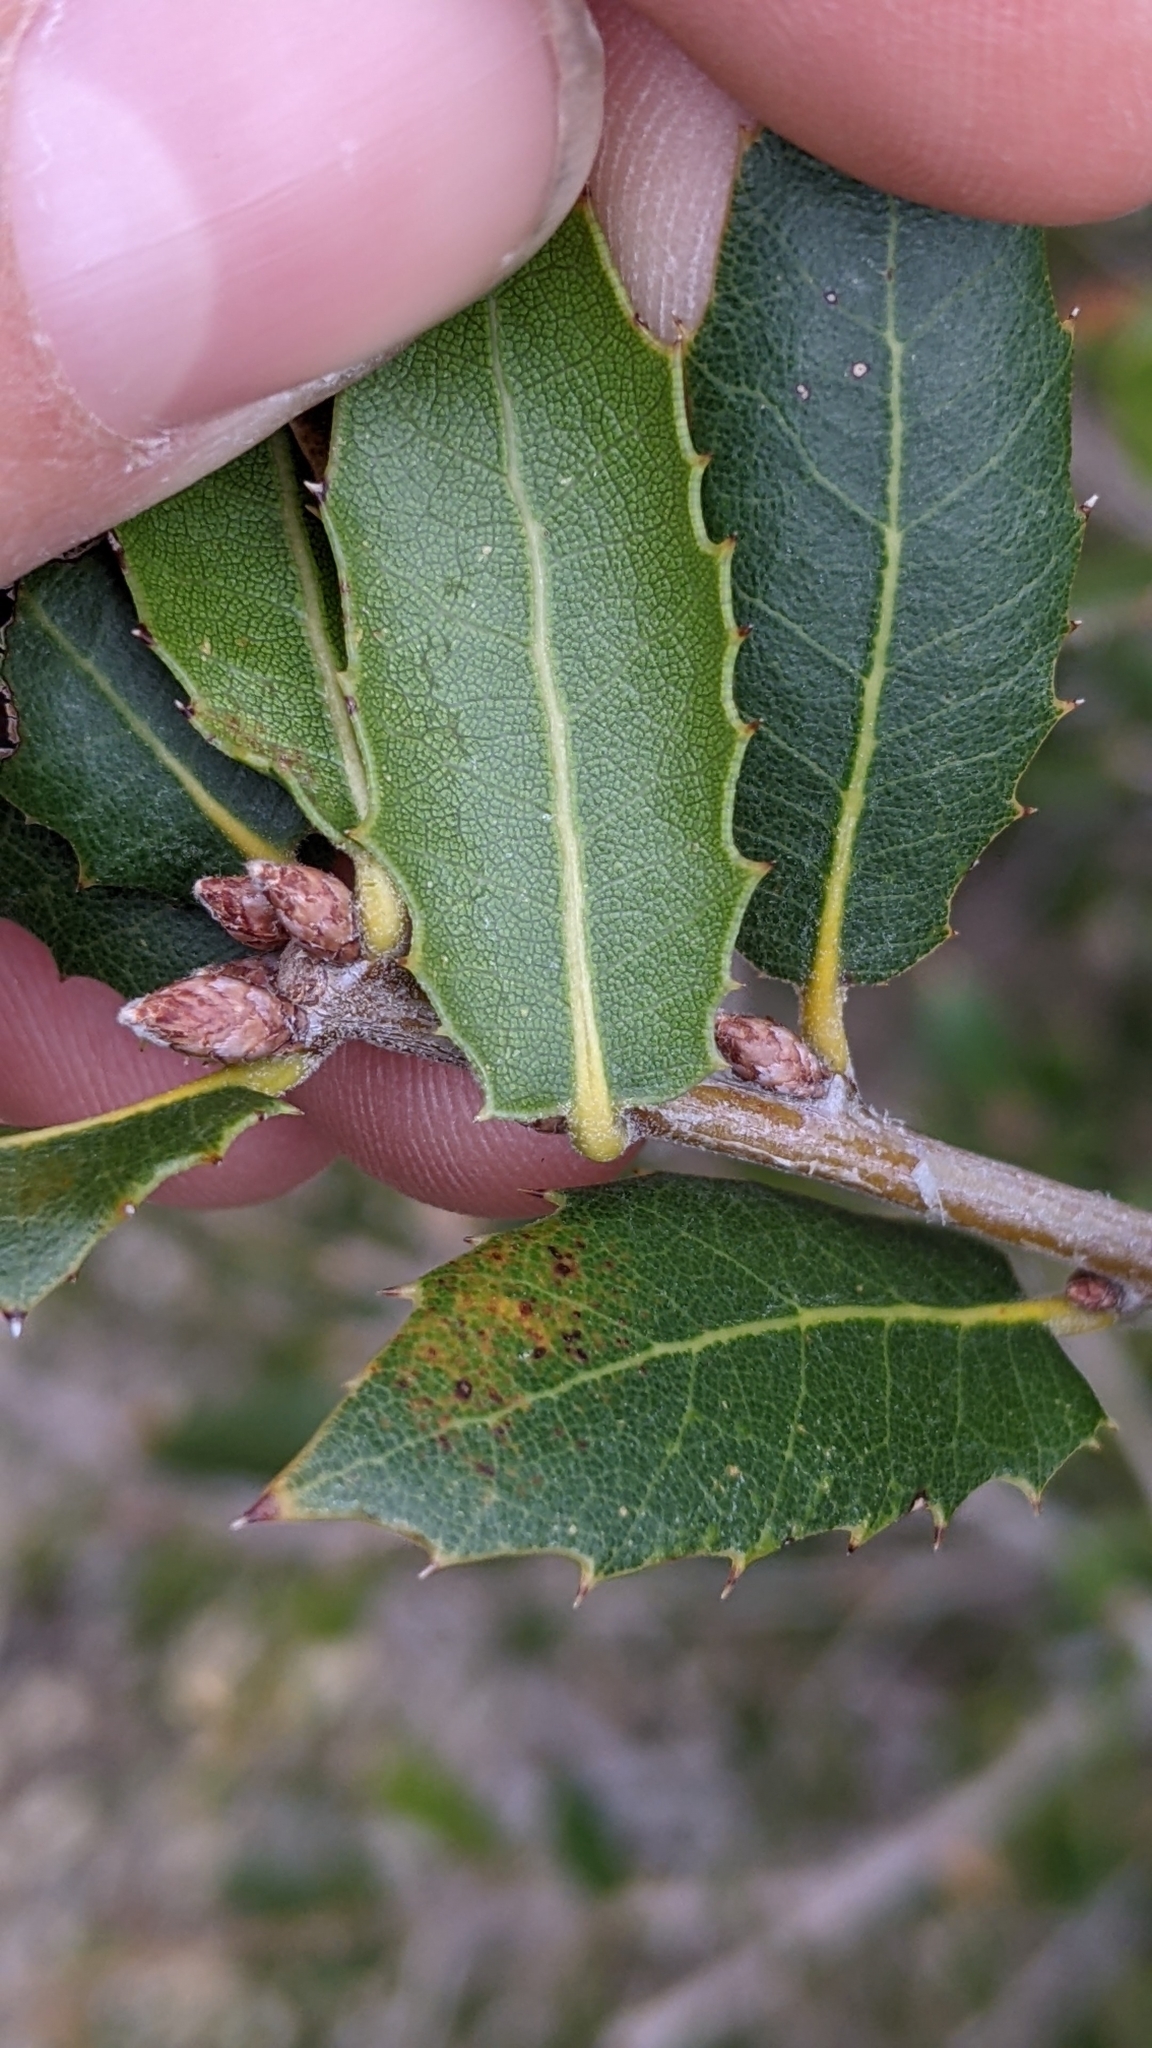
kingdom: Plantae
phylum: Tracheophyta
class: Magnoliopsida
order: Fagales
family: Fagaceae
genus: Quercus
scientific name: Quercus wislizeni
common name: Interior live oak
